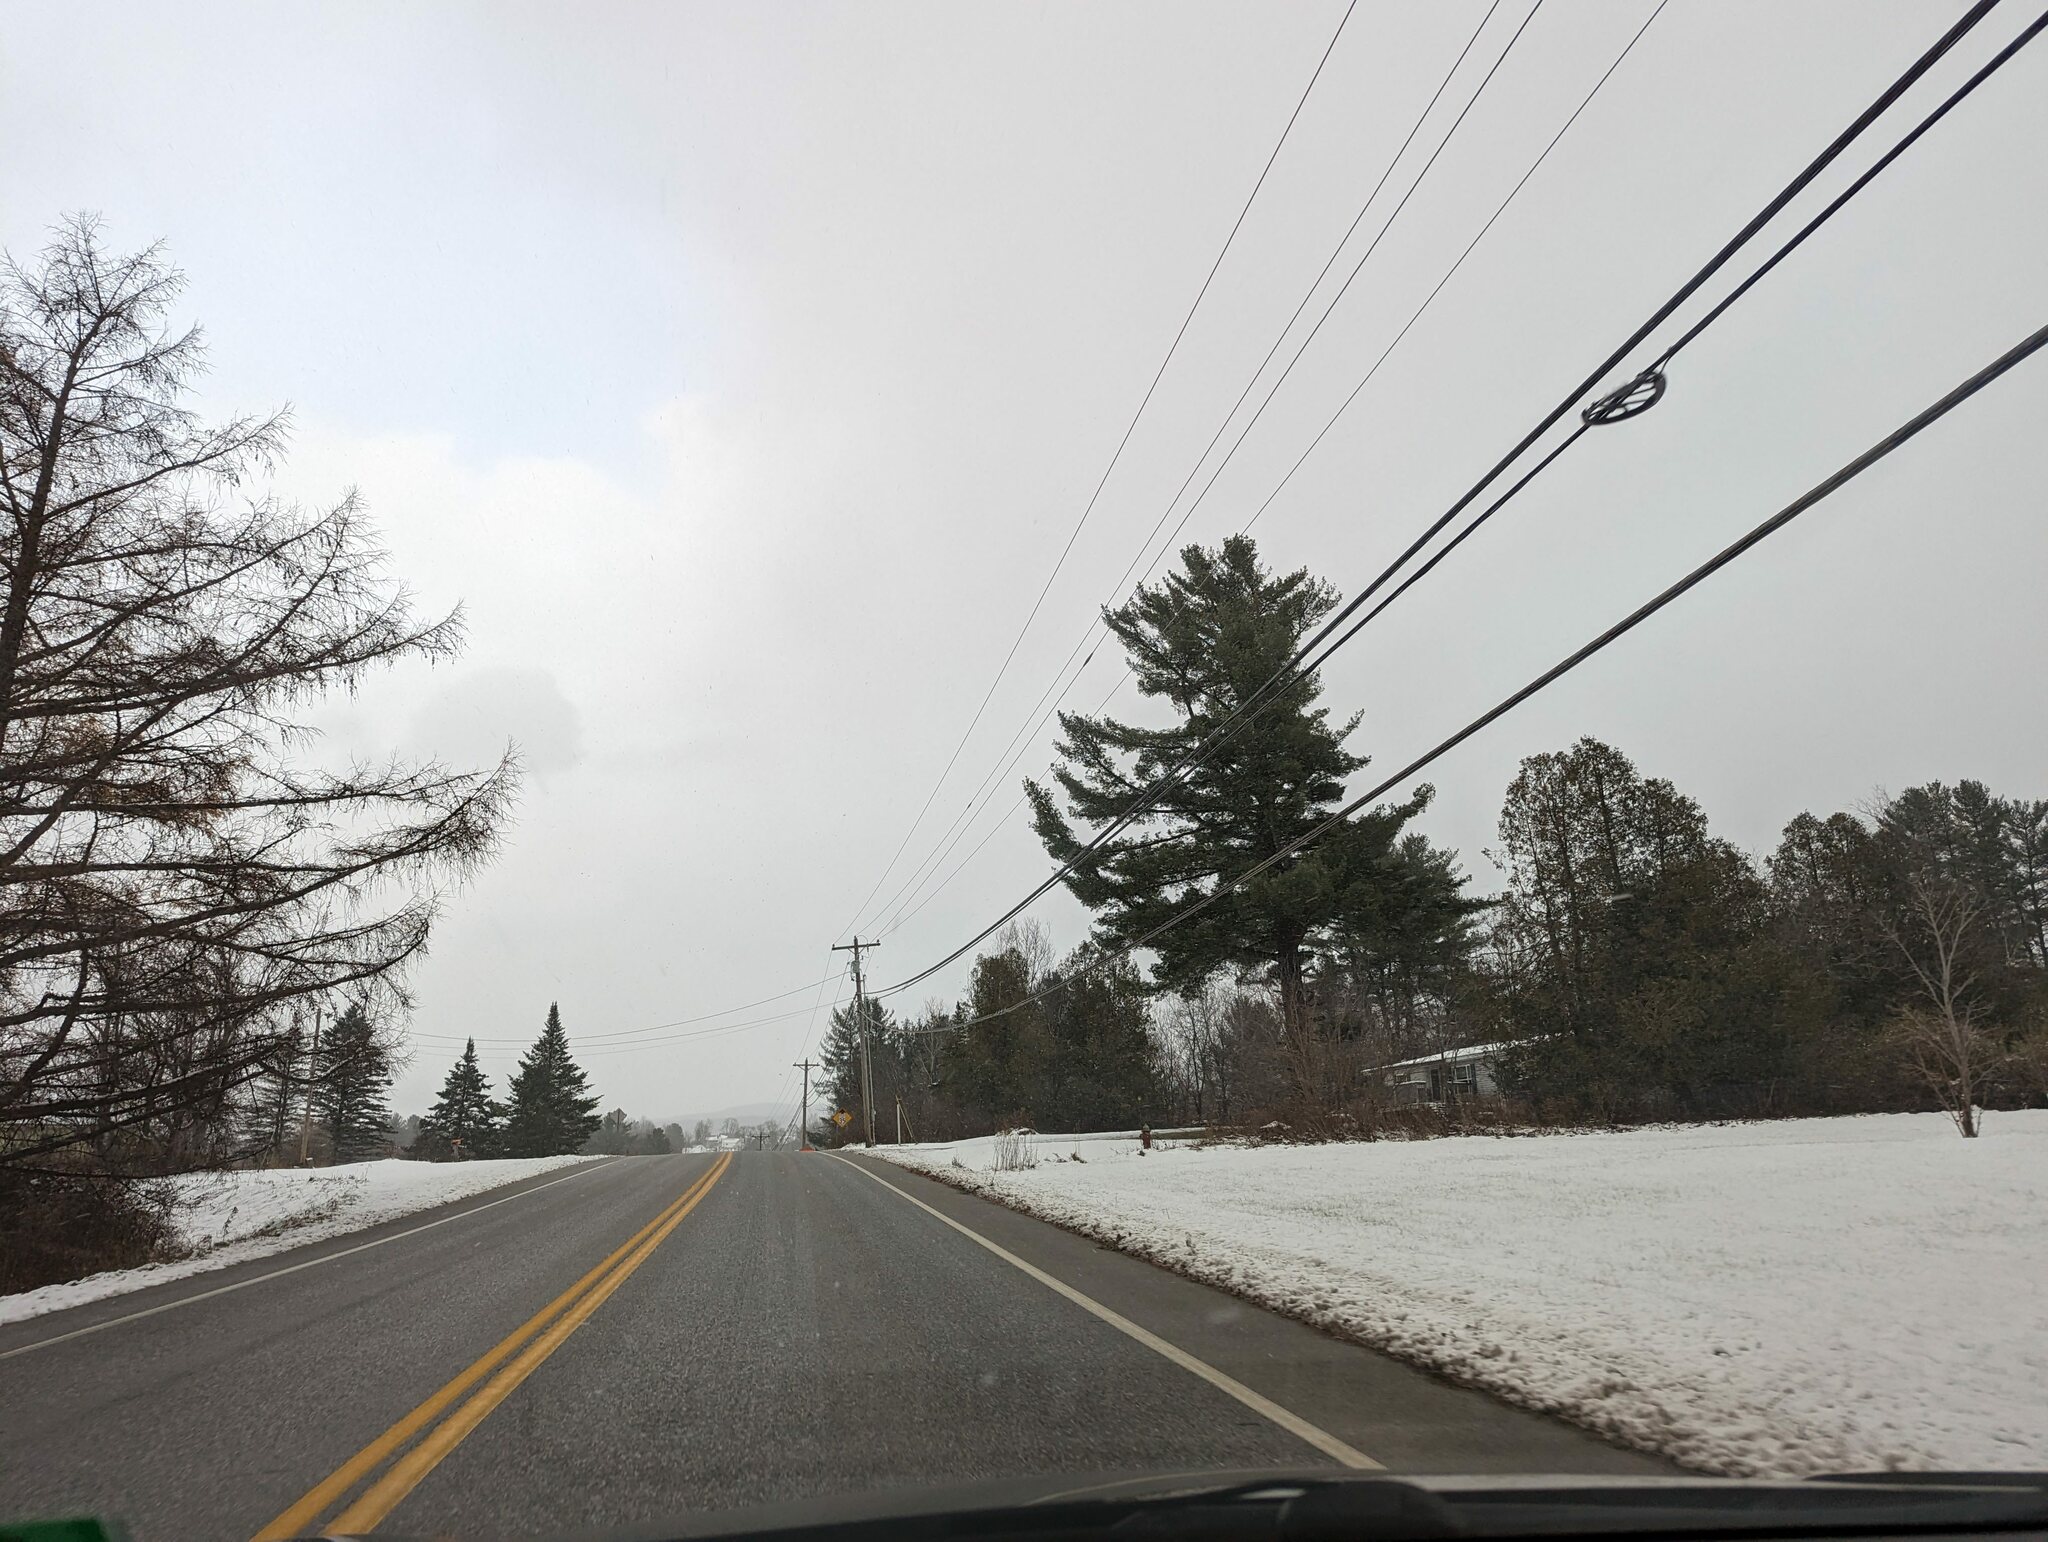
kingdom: Plantae
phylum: Tracheophyta
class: Pinopsida
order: Pinales
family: Pinaceae
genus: Pinus
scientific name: Pinus strobus
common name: Weymouth pine
